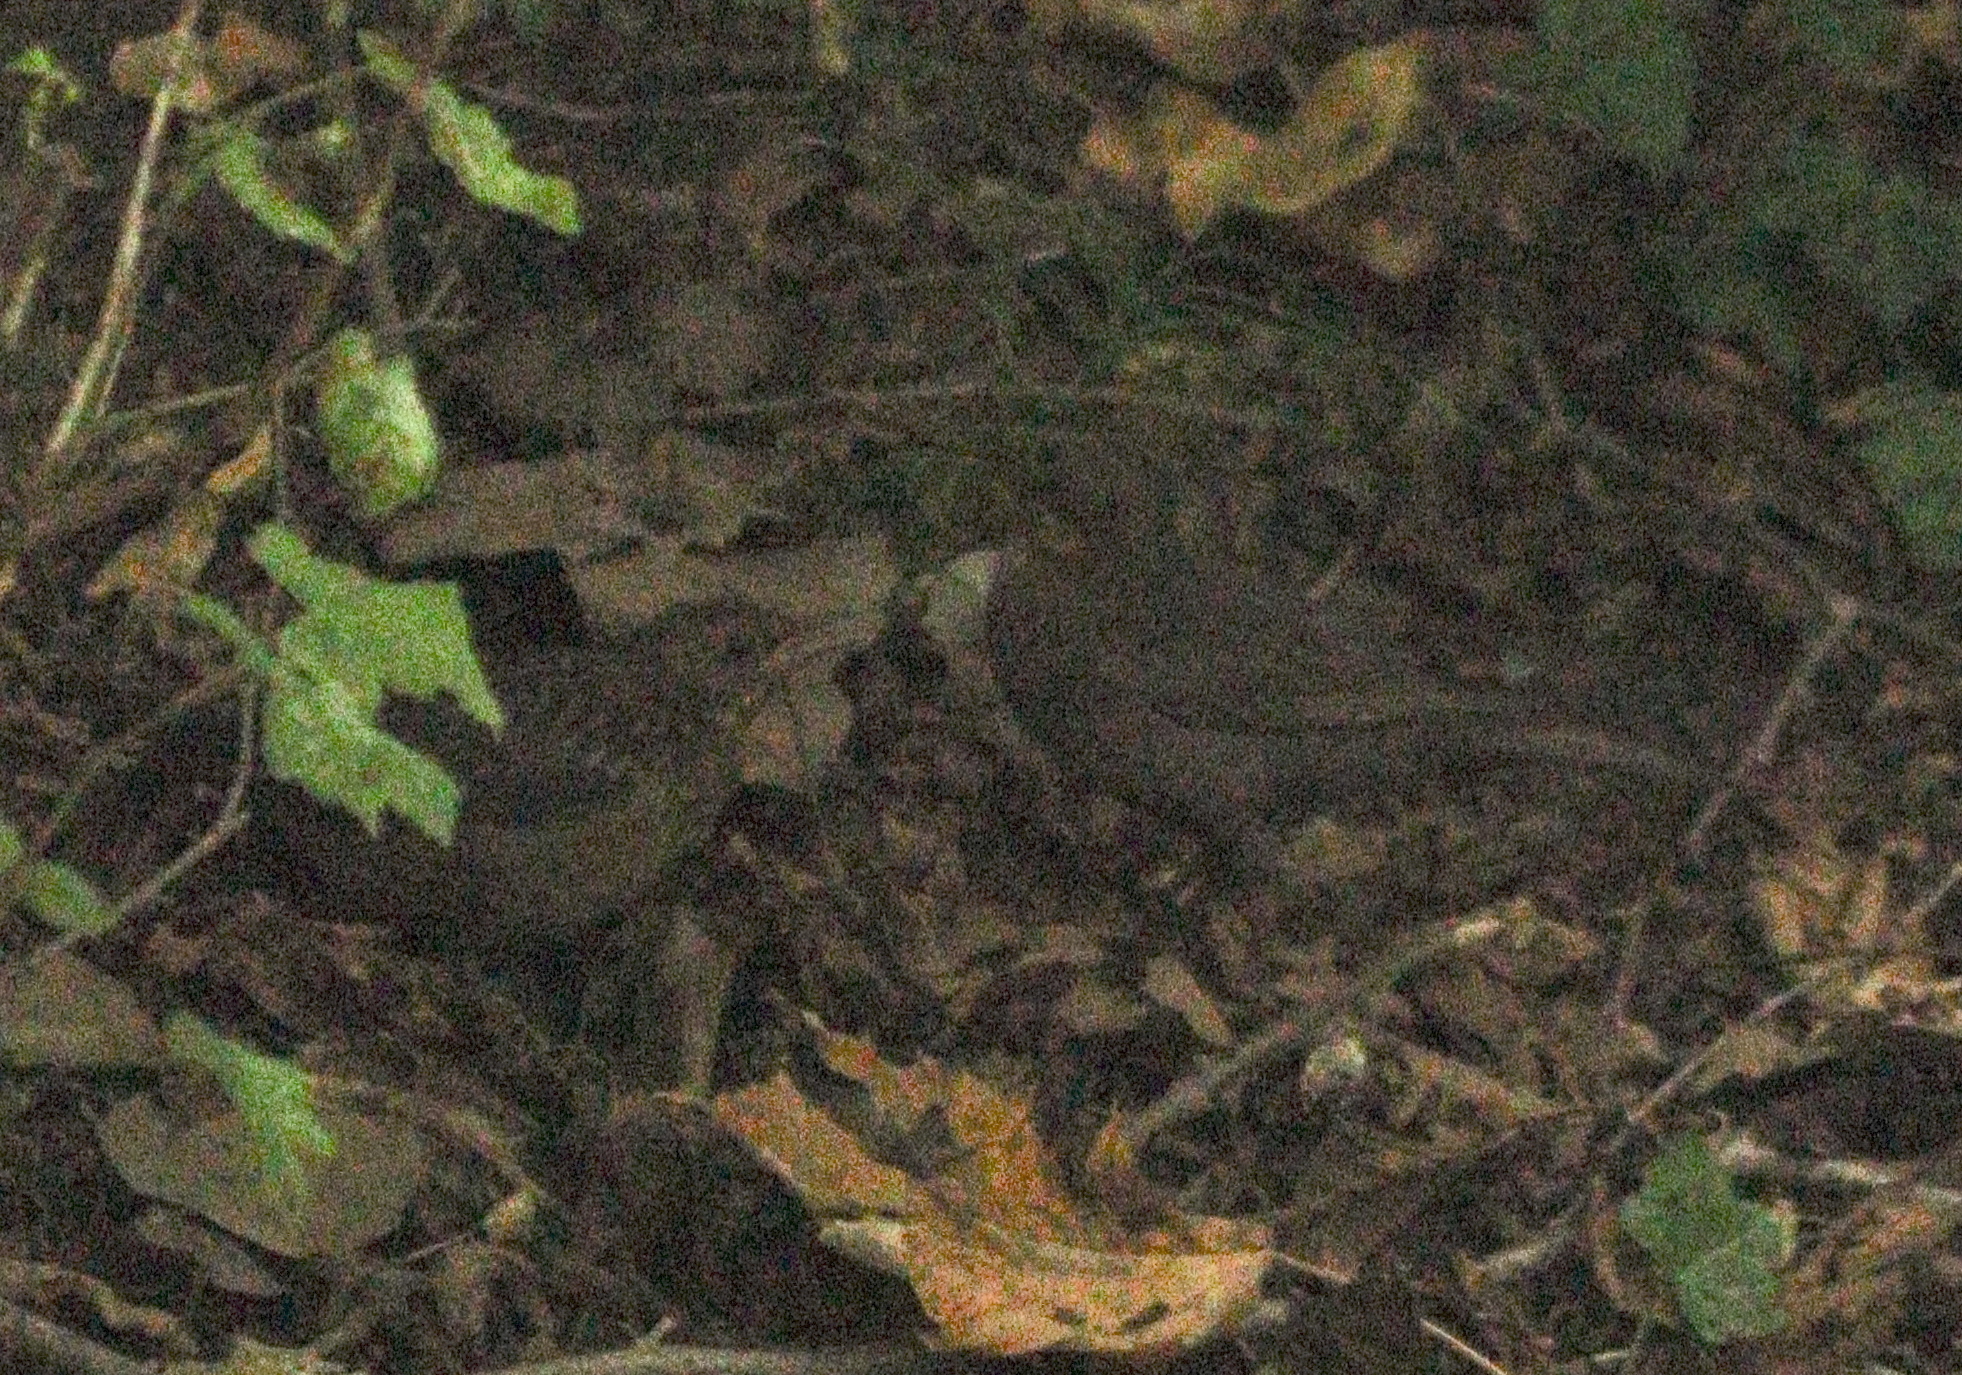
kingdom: Animalia
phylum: Chordata
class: Aves
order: Passeriformes
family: Turdidae
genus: Turdus
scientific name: Turdus merula
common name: Common blackbird
